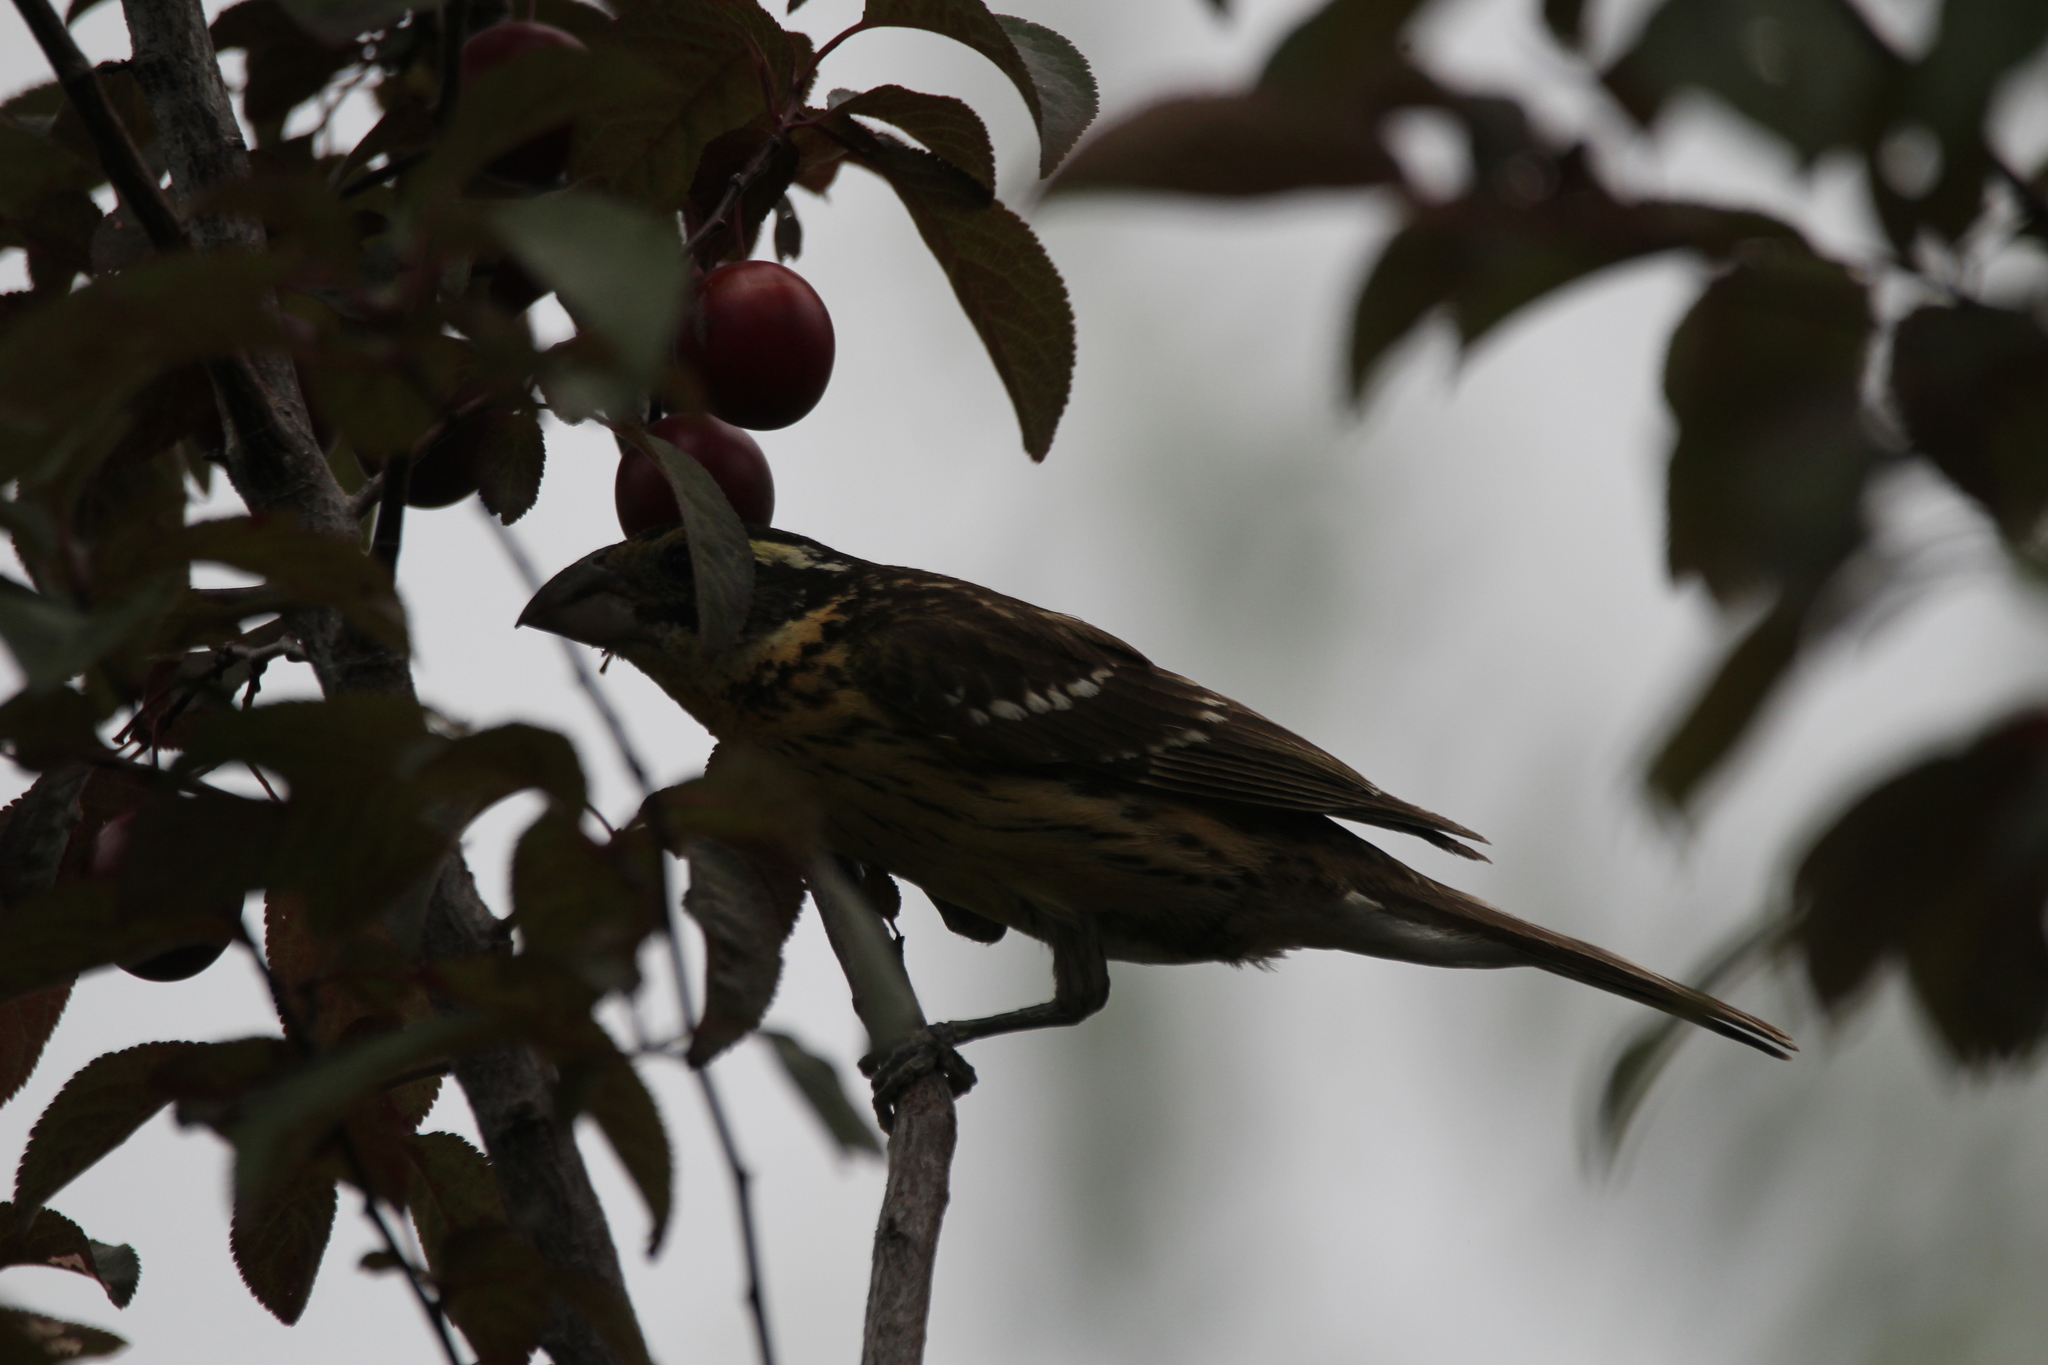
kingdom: Animalia
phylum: Chordata
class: Aves
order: Passeriformes
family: Cardinalidae
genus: Pheucticus
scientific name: Pheucticus melanocephalus
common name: Black-headed grosbeak
